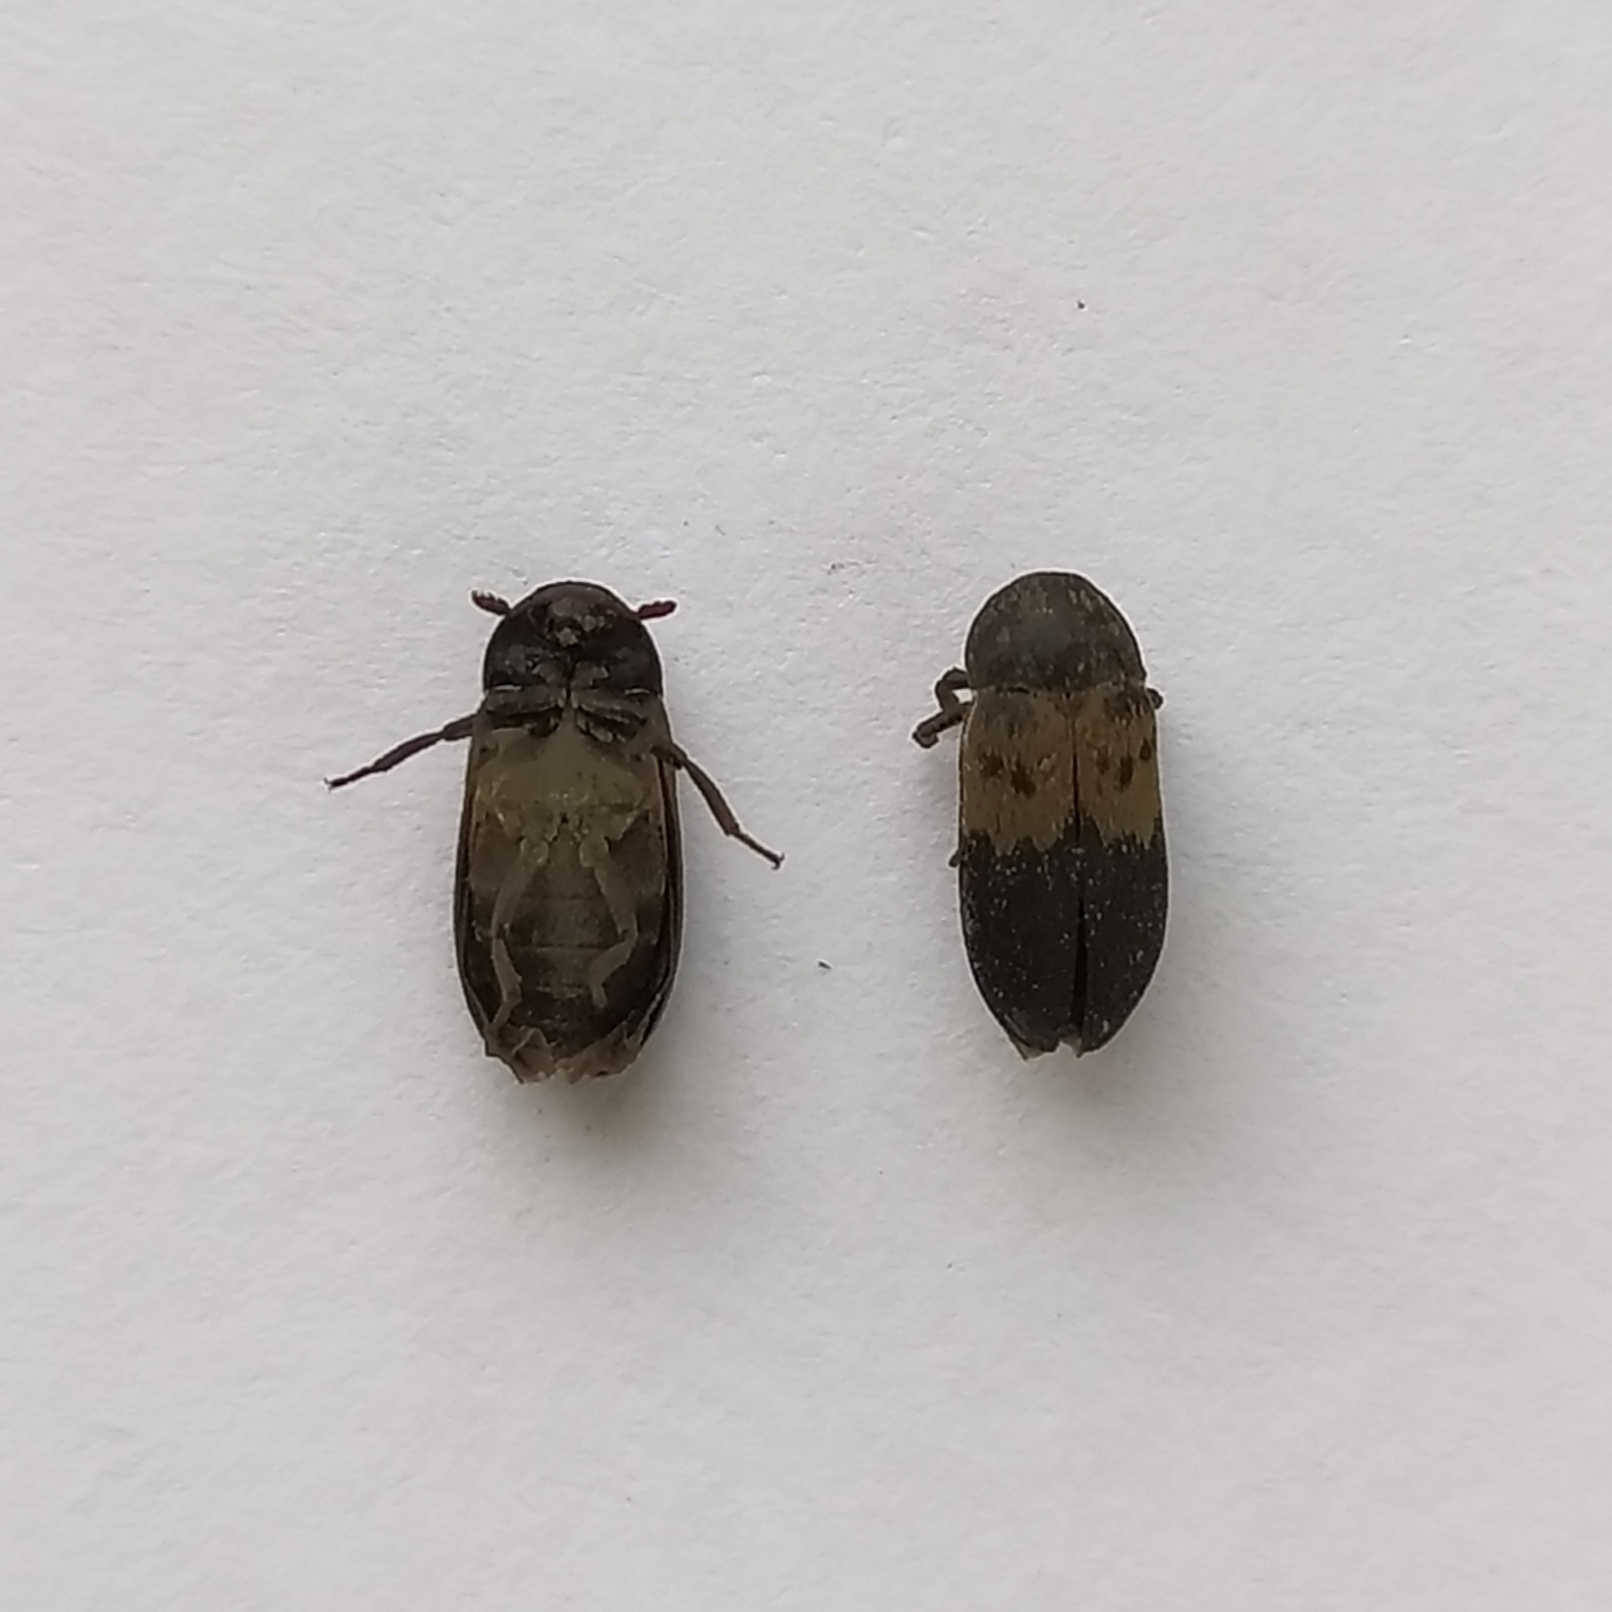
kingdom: Animalia
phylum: Arthropoda
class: Insecta
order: Coleoptera
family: Dermestidae
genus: Dermestes
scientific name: Dermestes lardarius
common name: Larder beetle
